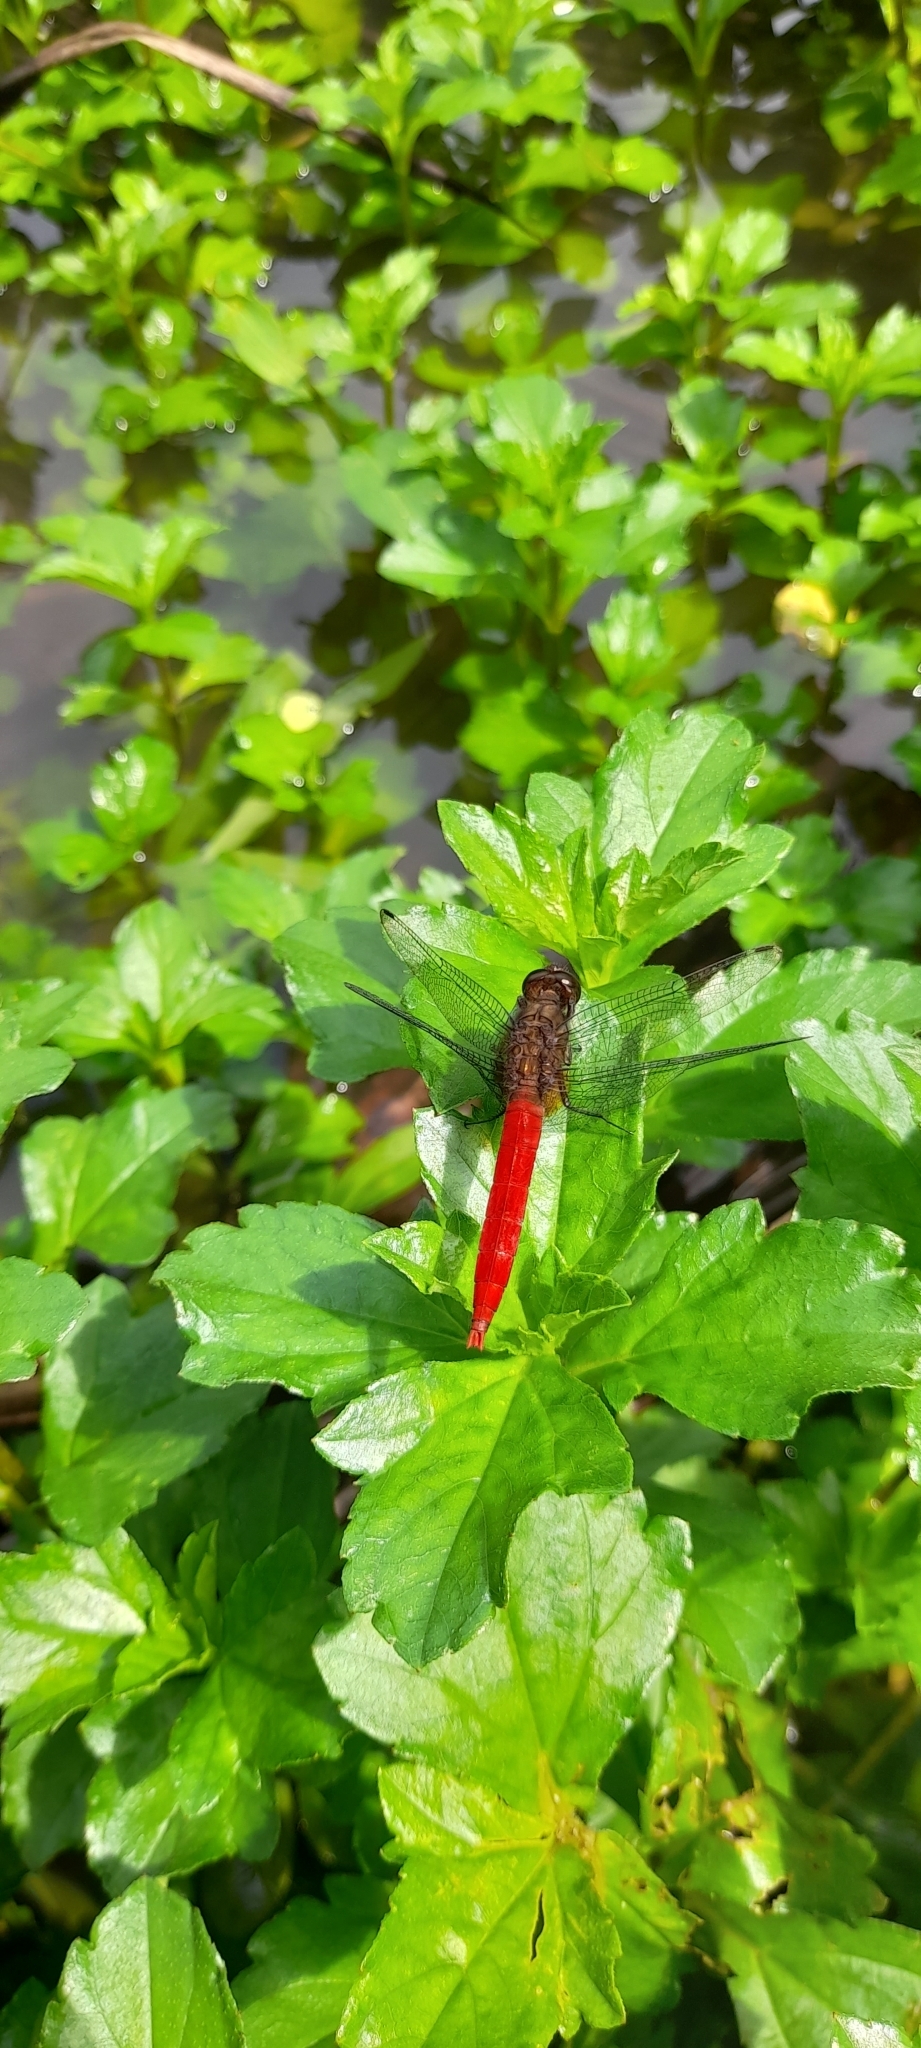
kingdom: Animalia
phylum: Arthropoda
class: Insecta
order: Odonata
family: Libellulidae
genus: Orthetrum
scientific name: Orthetrum chrysis
